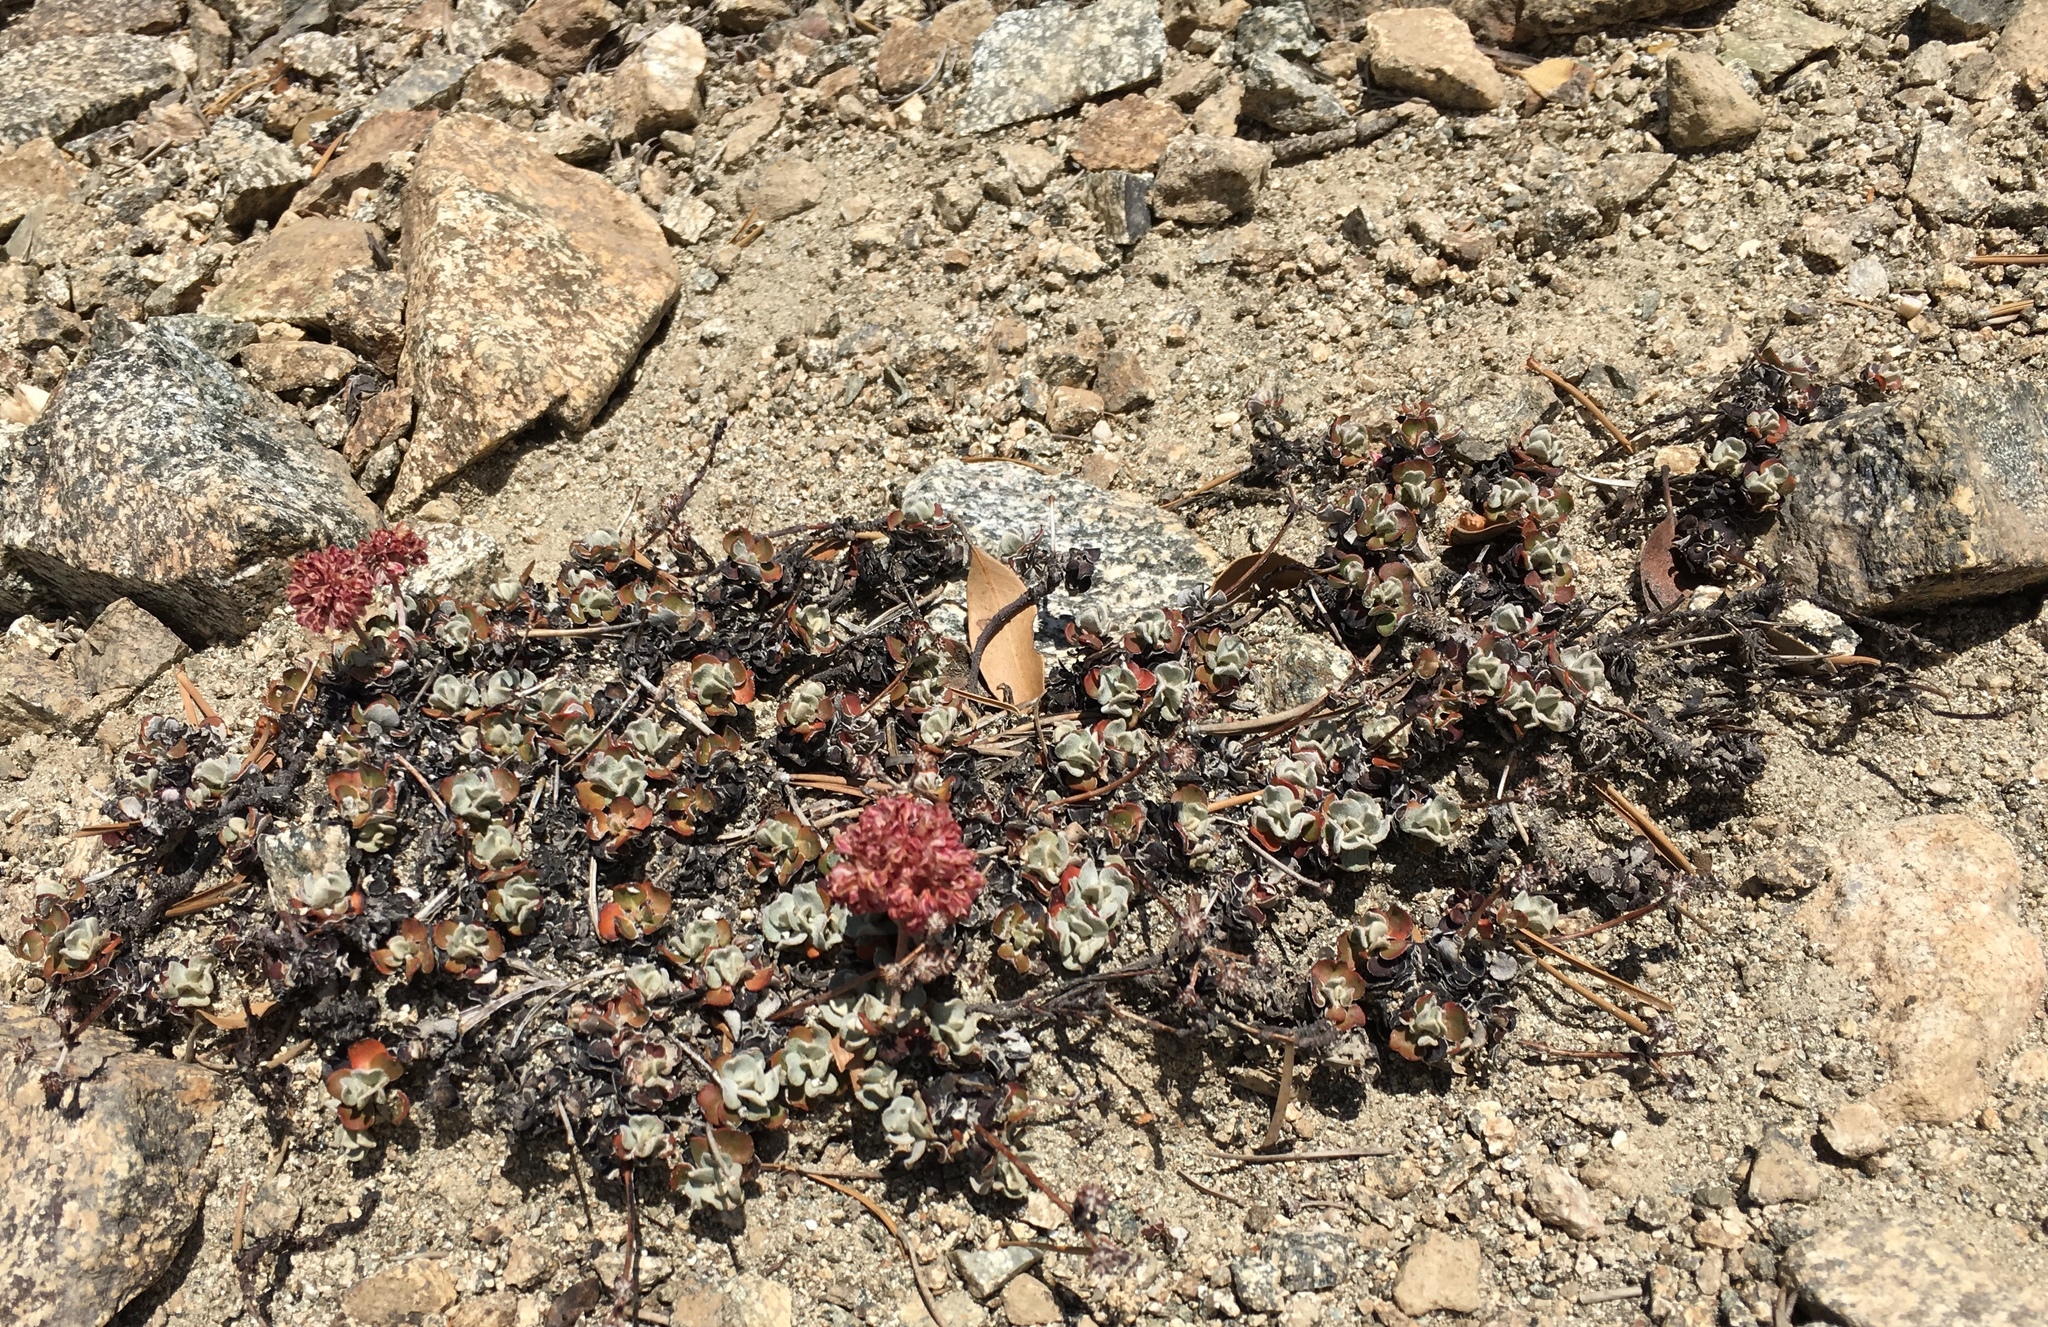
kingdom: Plantae
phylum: Tracheophyta
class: Magnoliopsida
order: Caryophyllales
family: Polygonaceae
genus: Eriogonum
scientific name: Eriogonum umbellatum
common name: Sulfur-buckwheat
